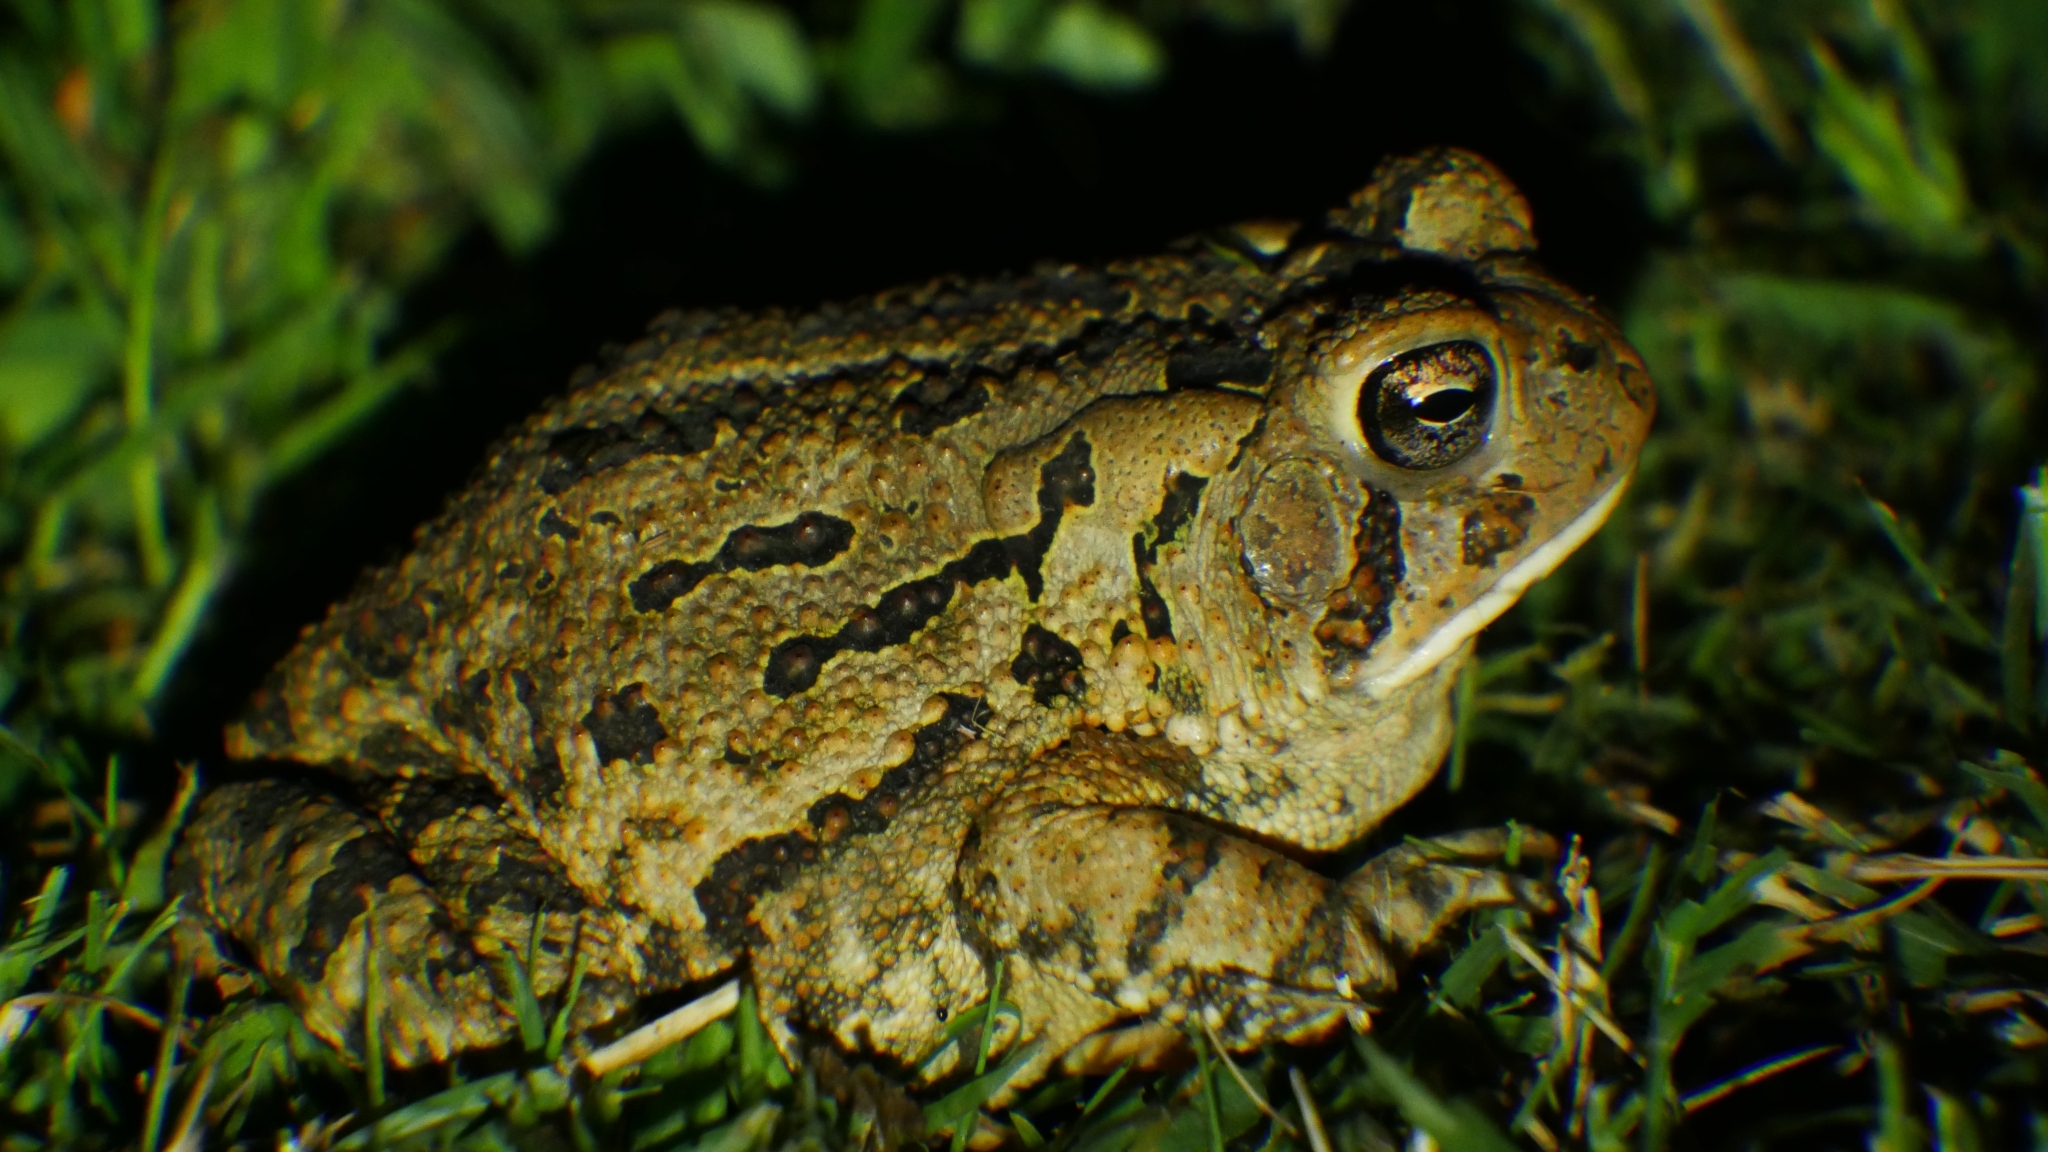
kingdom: Animalia
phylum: Chordata
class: Amphibia
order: Anura
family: Bufonidae
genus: Anaxyrus
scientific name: Anaxyrus fowleri
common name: Fowler's toad
